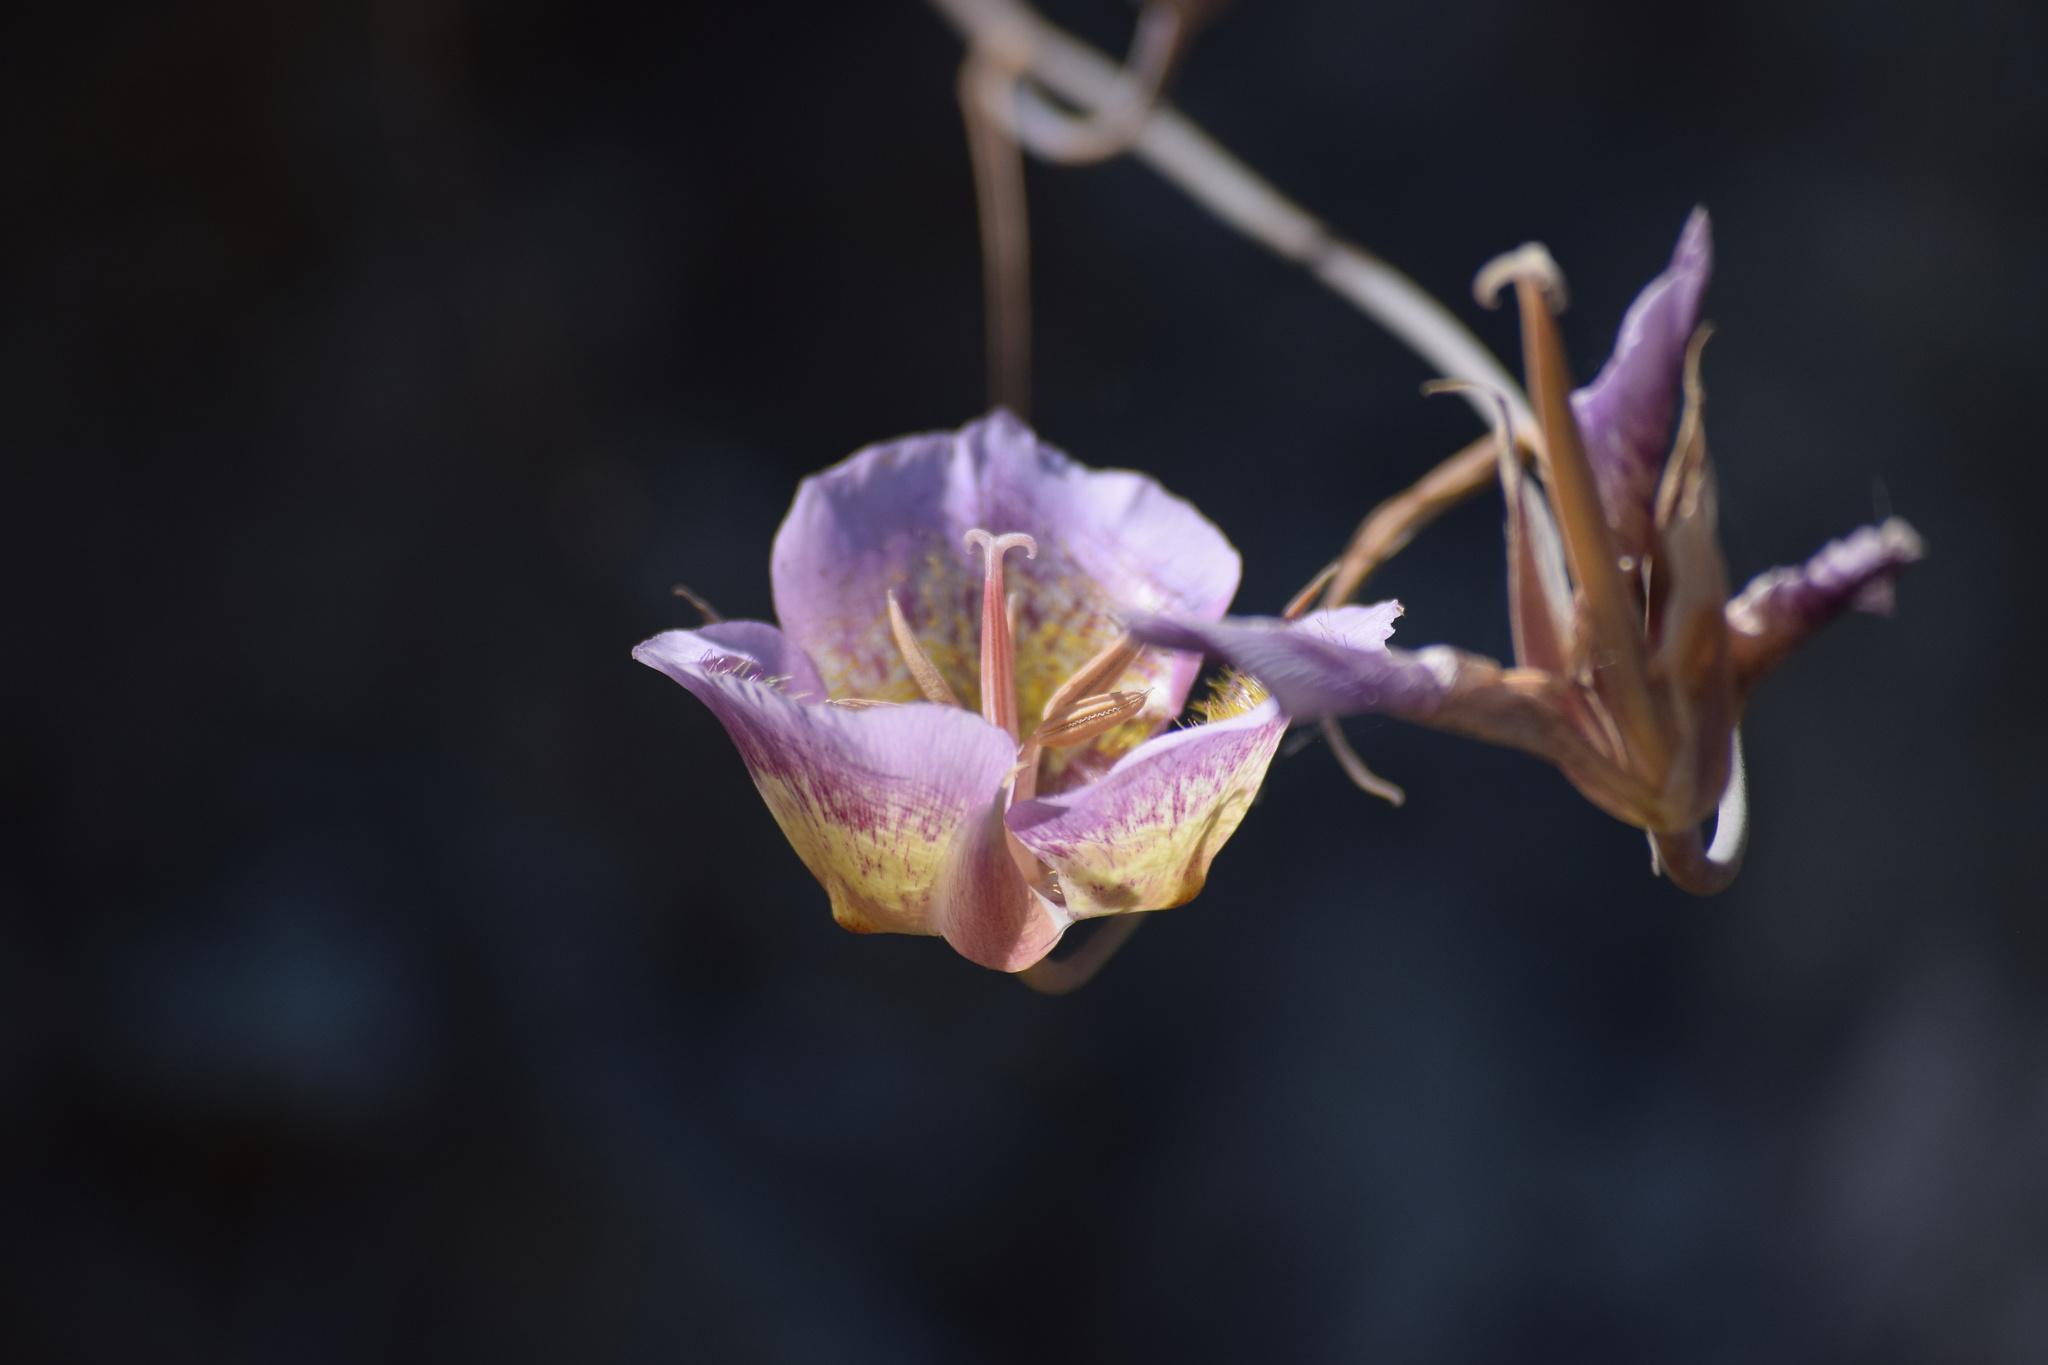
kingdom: Plantae
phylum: Tracheophyta
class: Liliopsida
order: Liliales
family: Liliaceae
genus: Calochortus
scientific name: Calochortus plummerae
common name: Plummer's mariposa-lily
